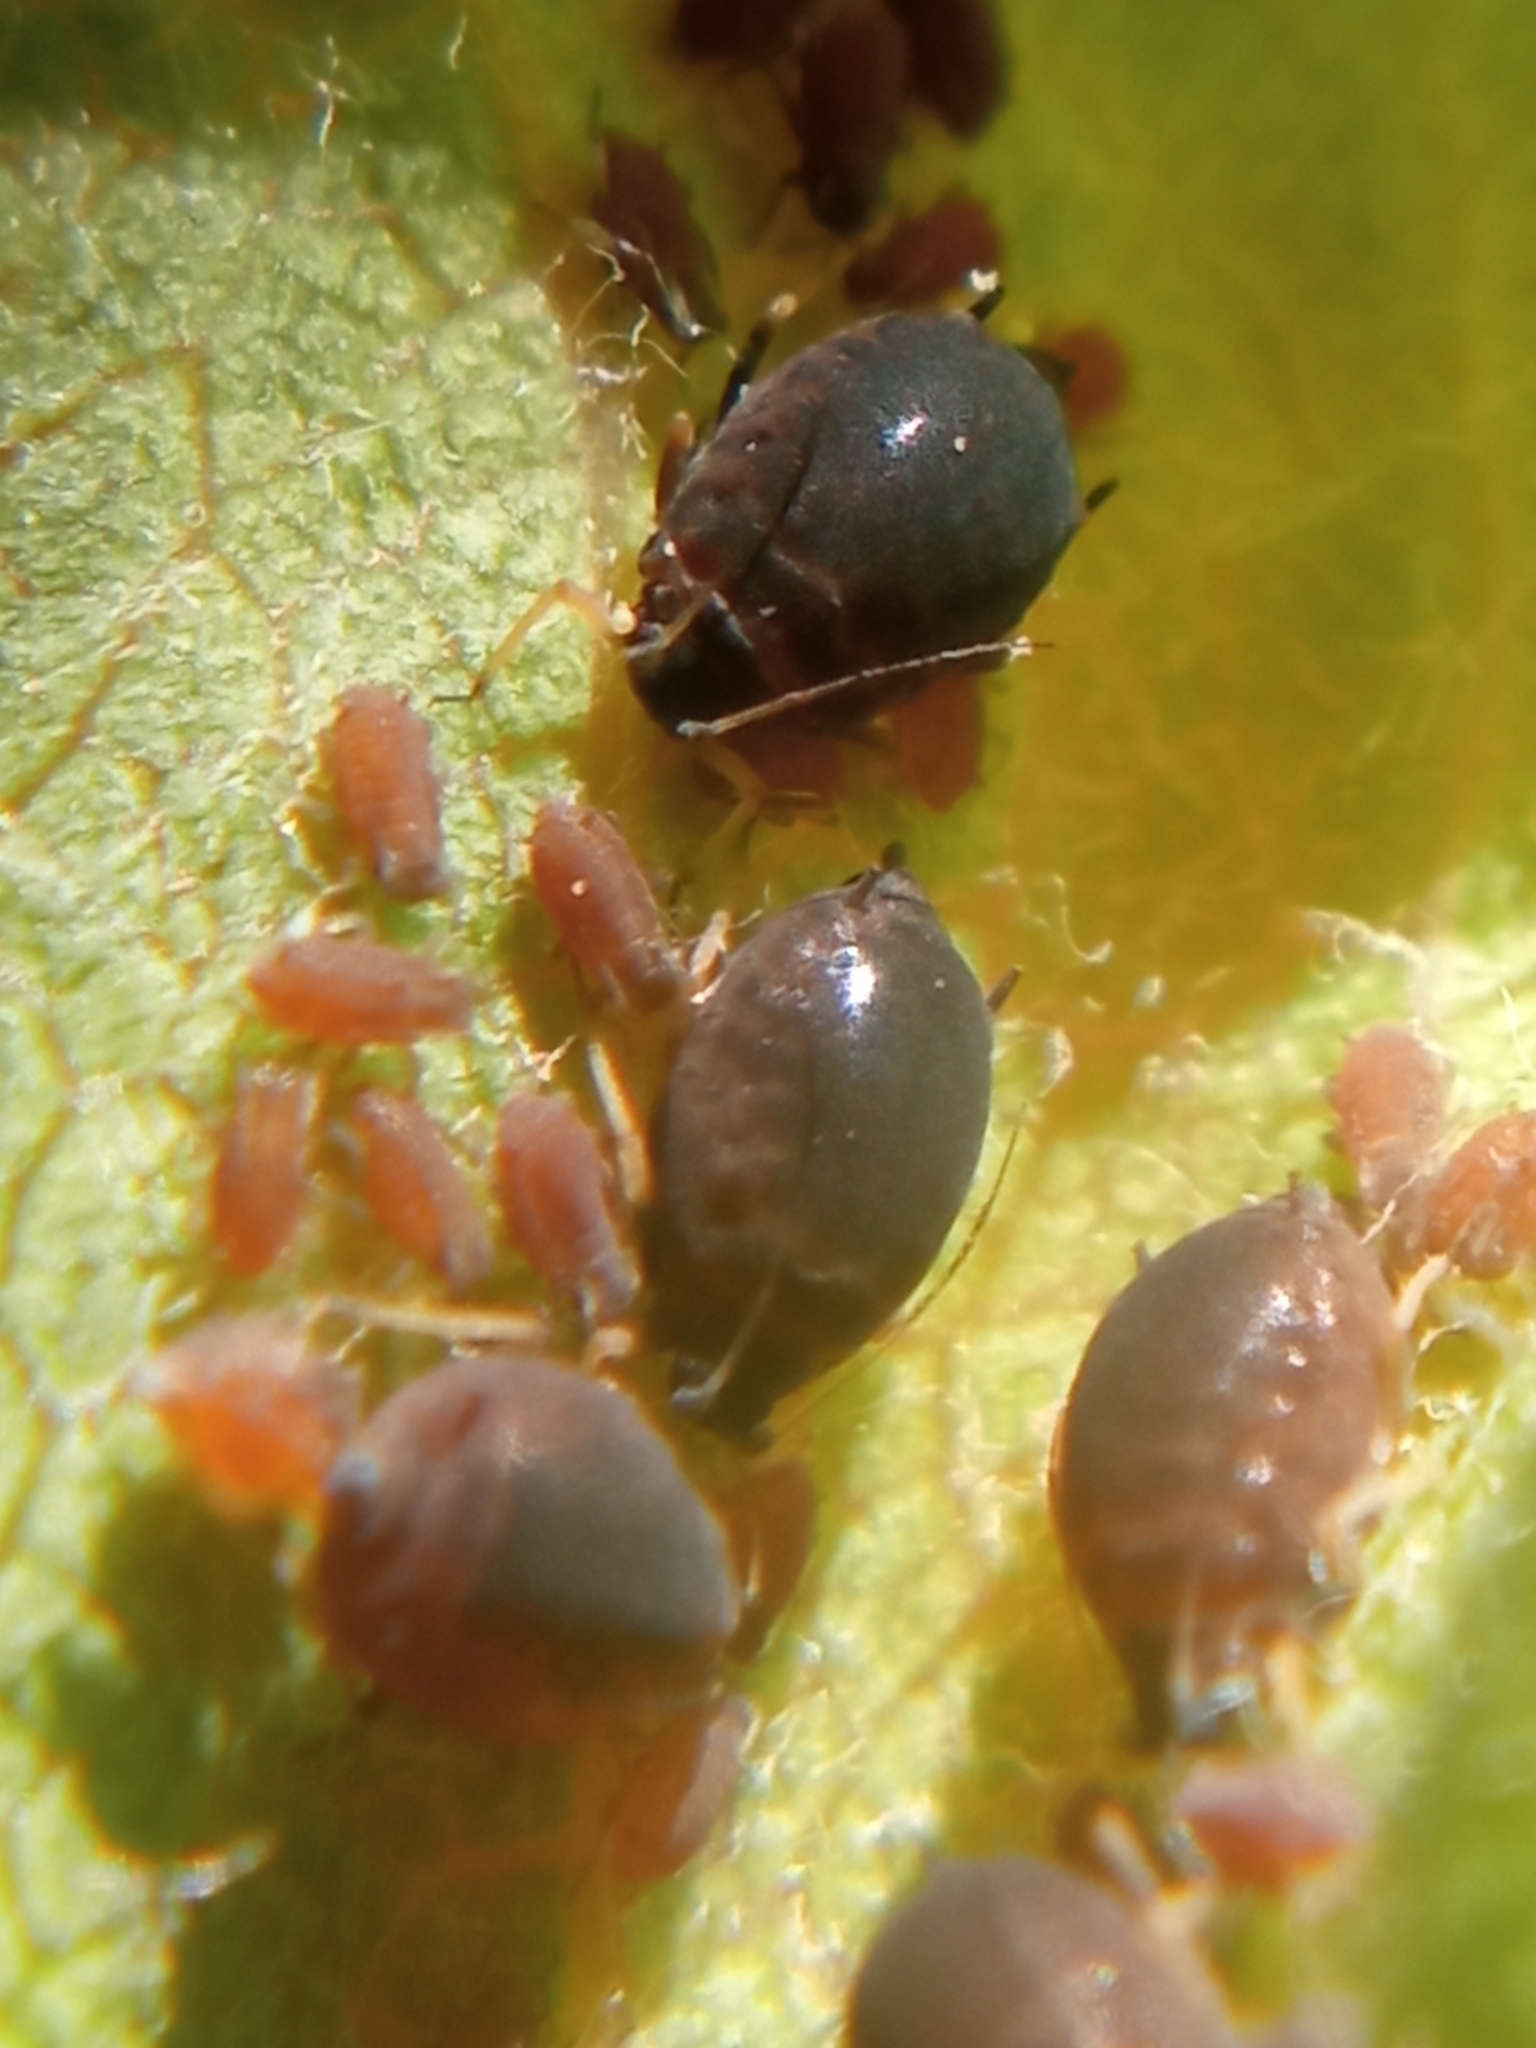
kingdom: Animalia
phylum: Arthropoda
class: Insecta
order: Hemiptera
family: Aphididae
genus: Melanaphis
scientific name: Melanaphis pyraria
